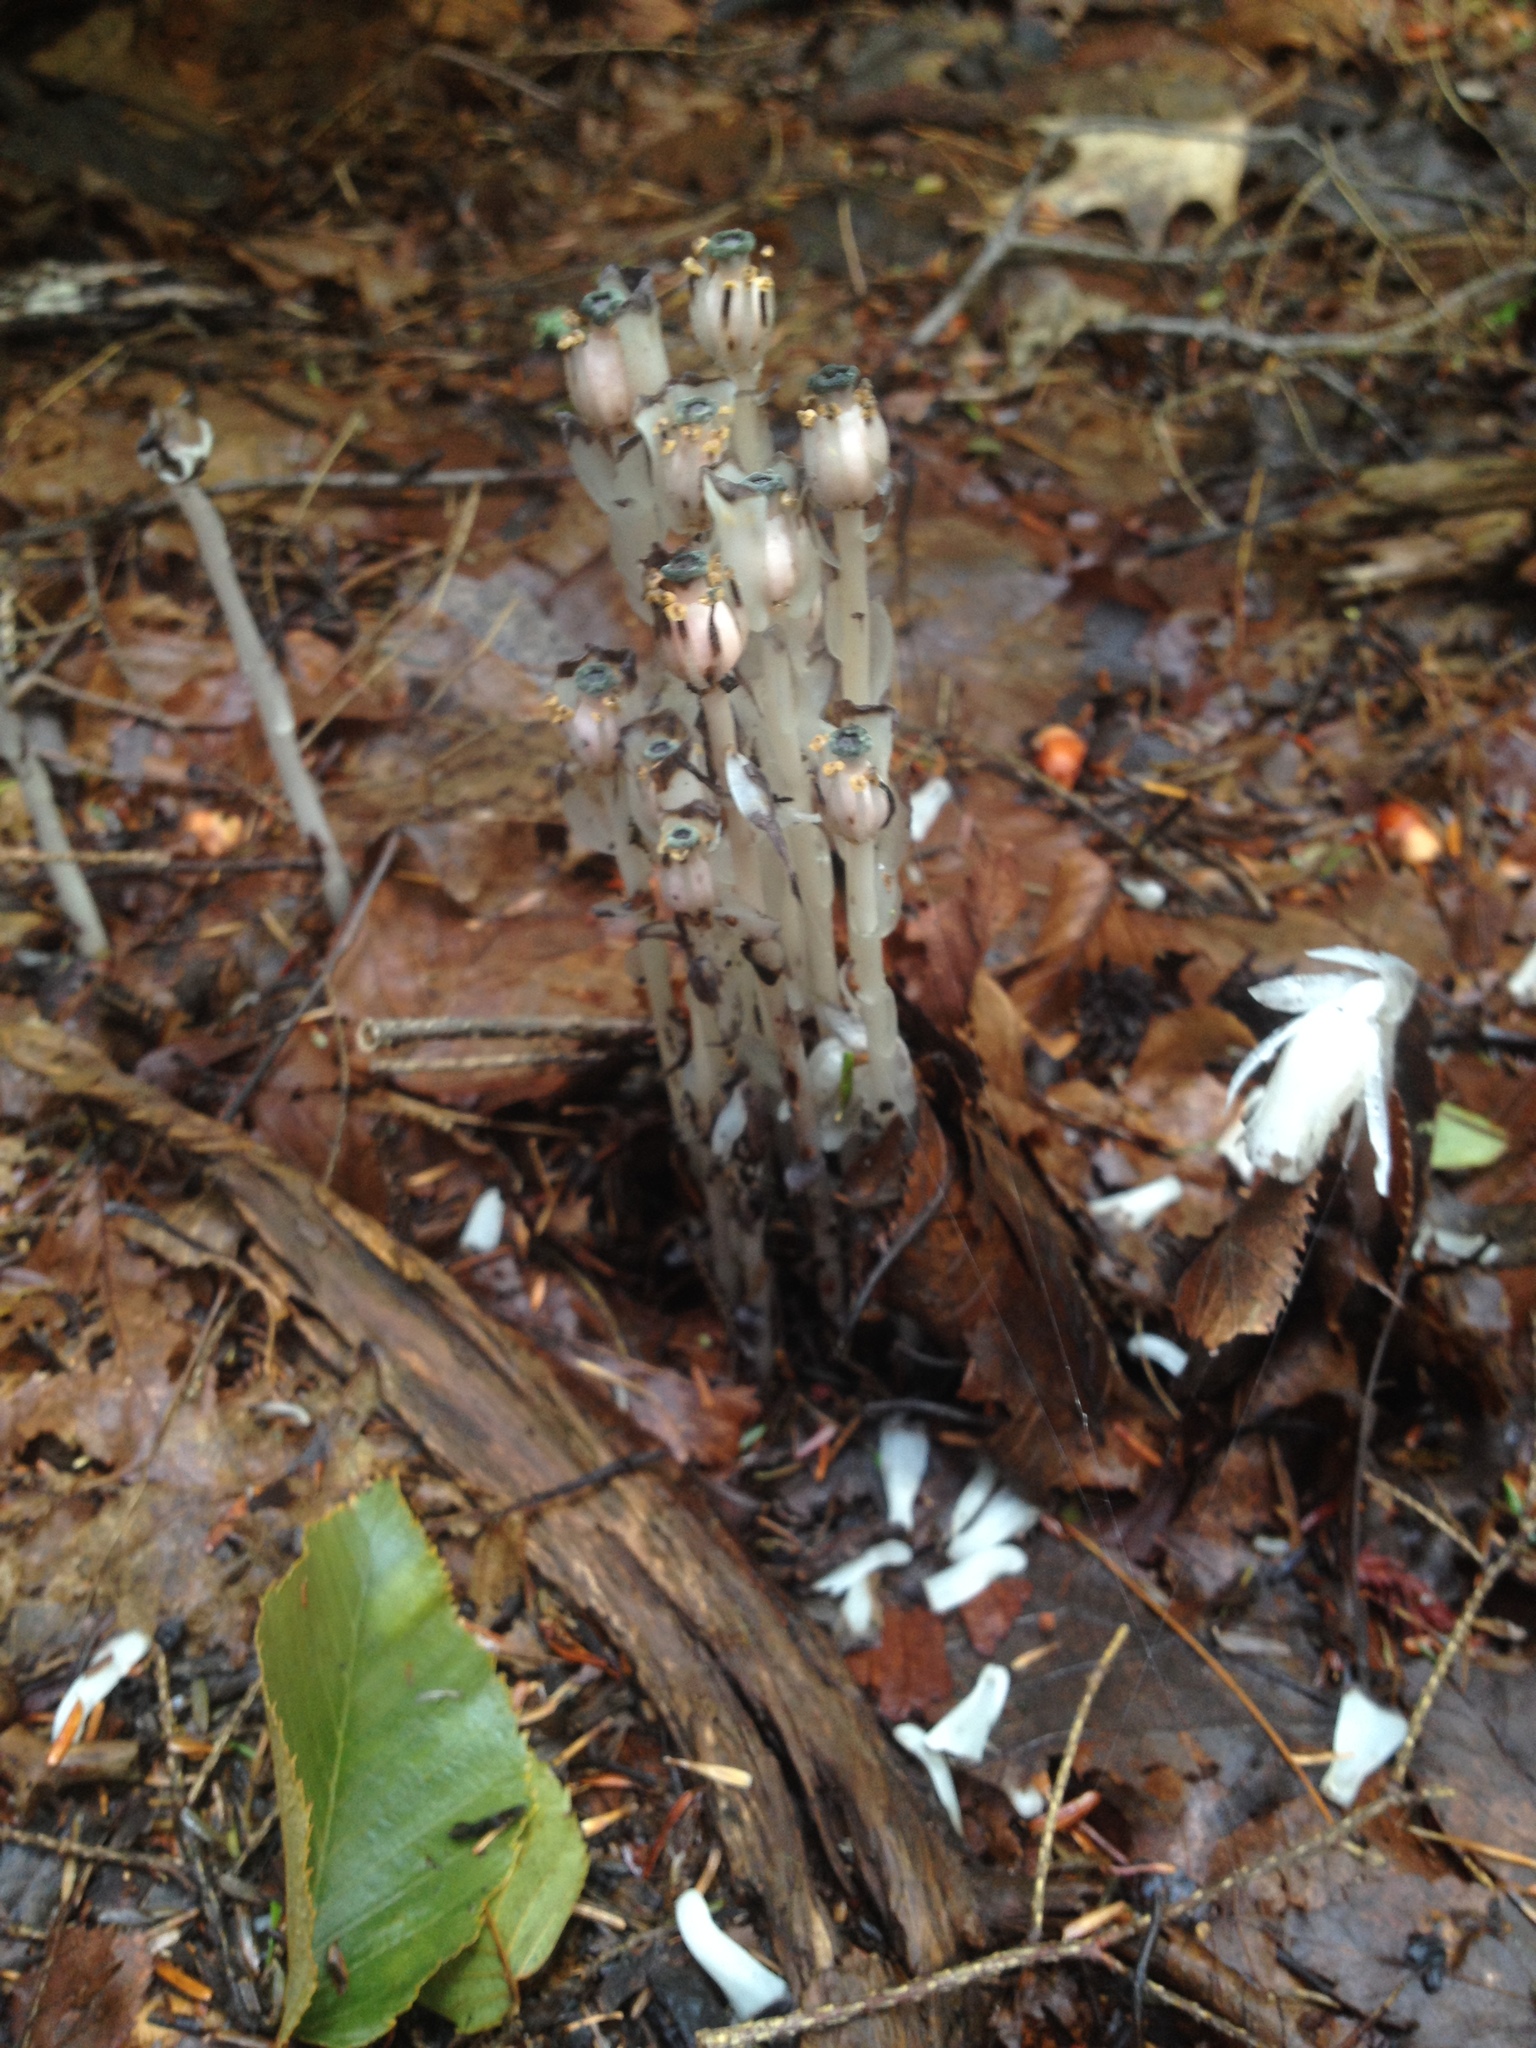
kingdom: Plantae
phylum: Tracheophyta
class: Magnoliopsida
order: Ericales
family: Ericaceae
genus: Monotropa
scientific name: Monotropa uniflora
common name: Convulsion root
